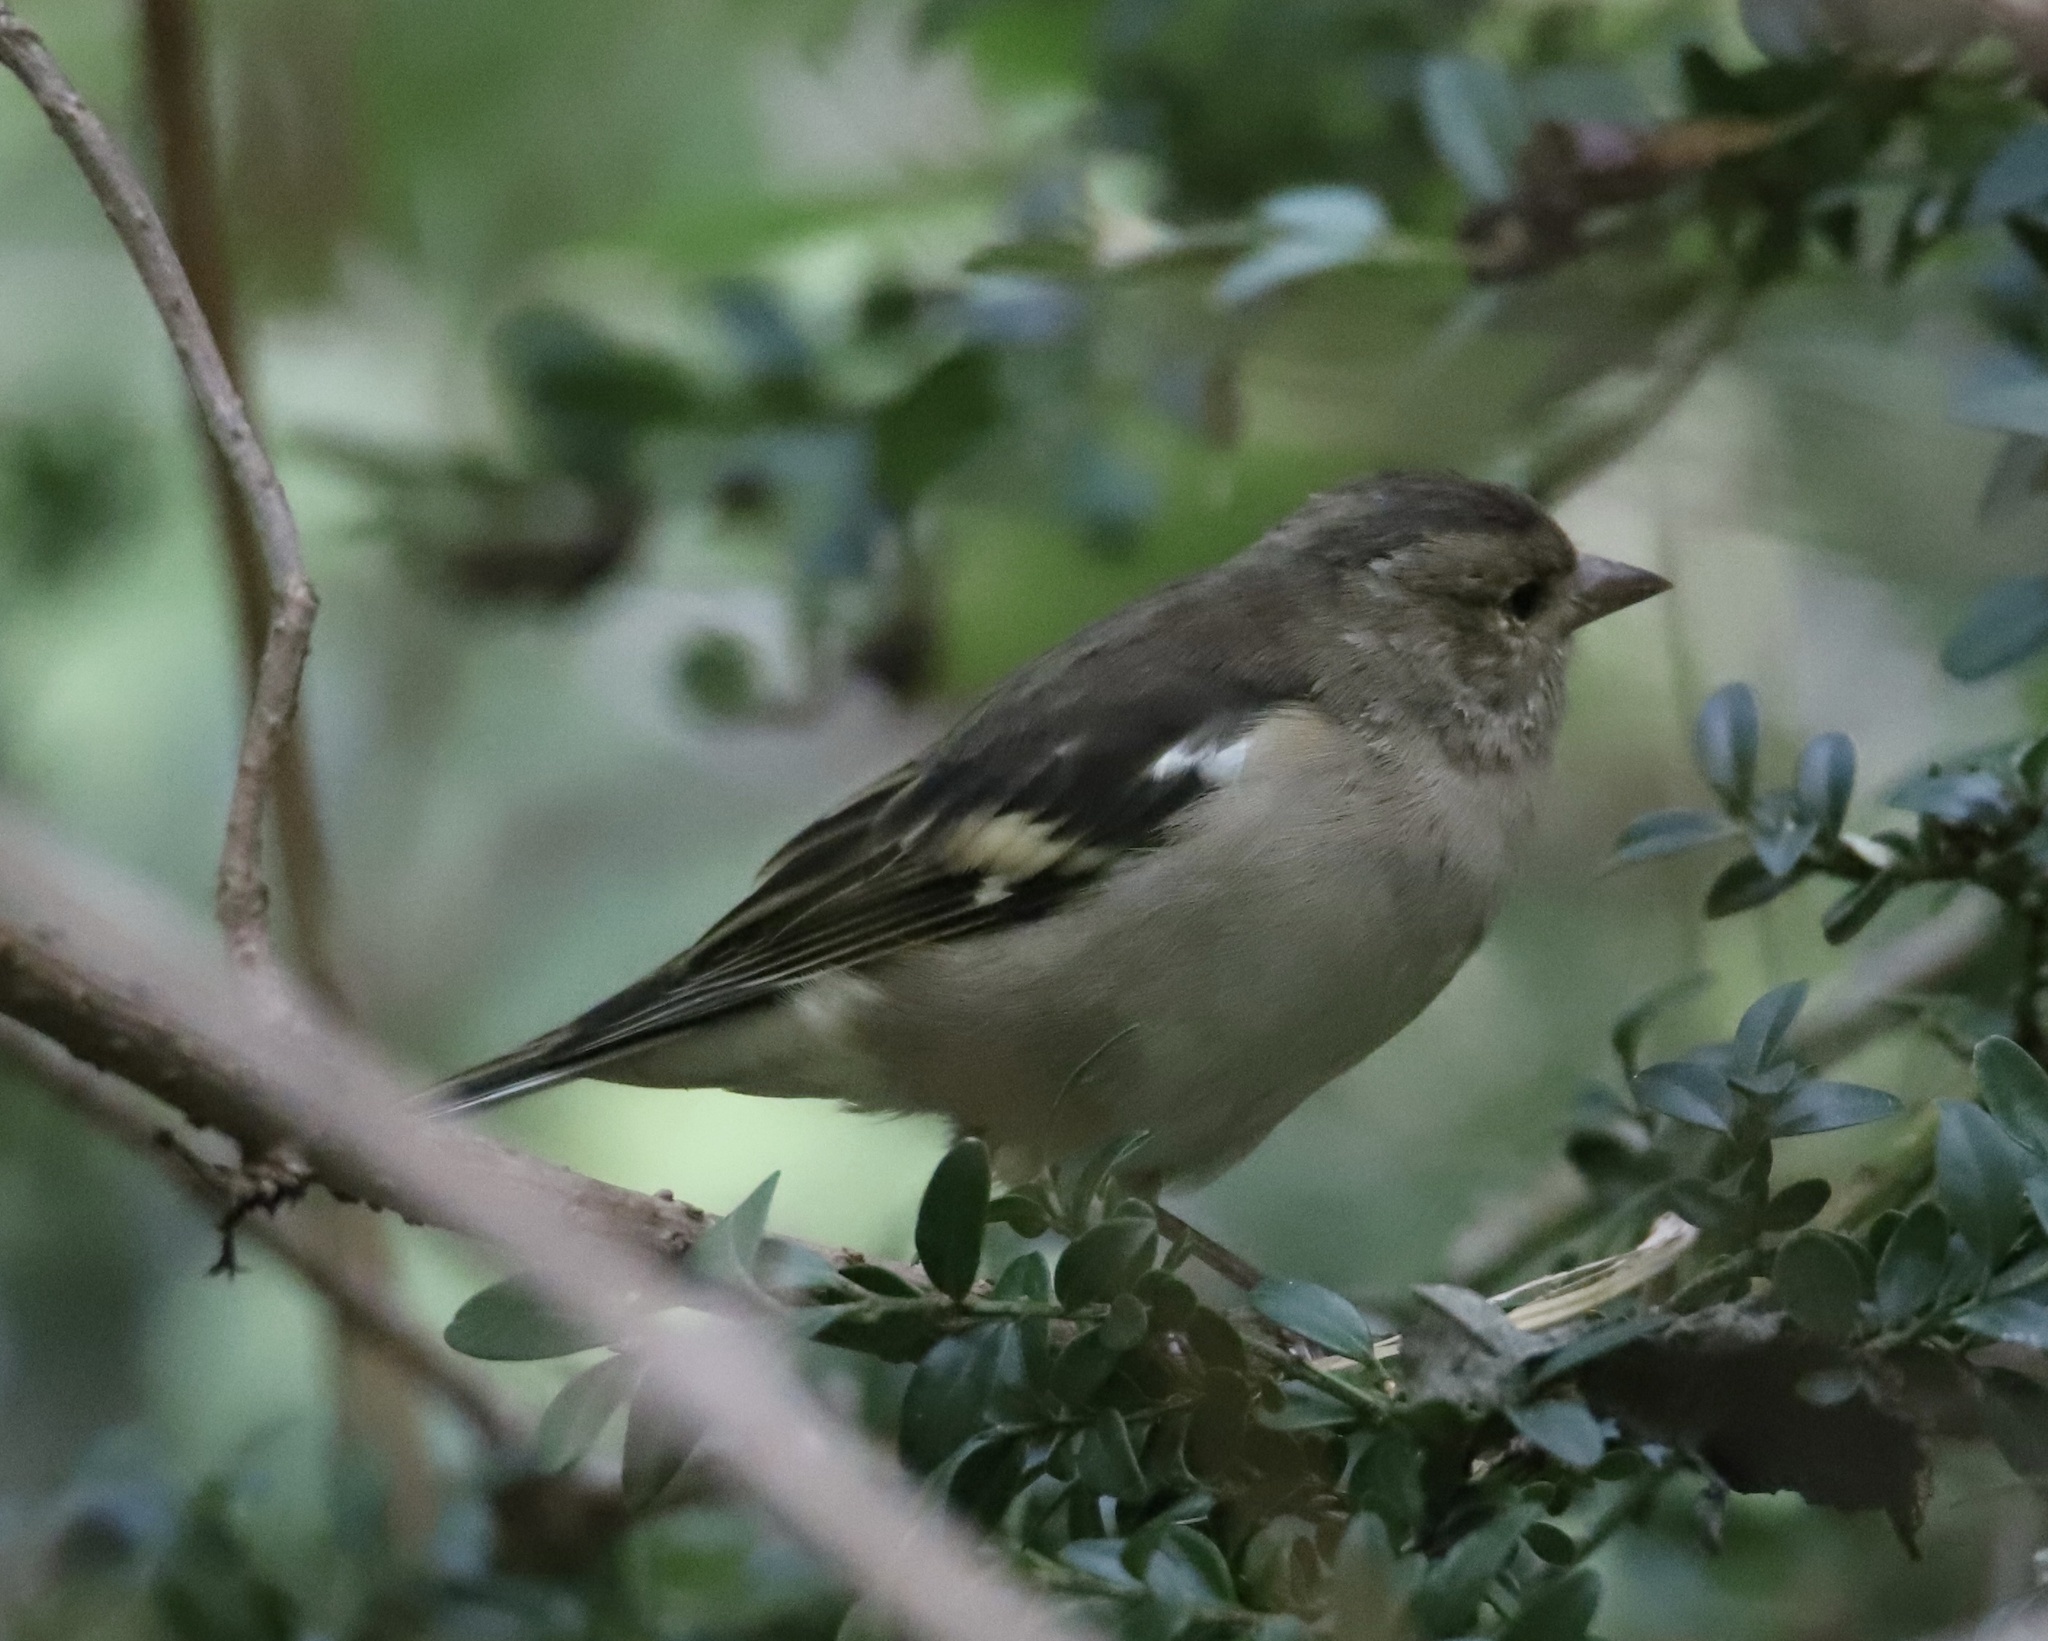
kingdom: Animalia
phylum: Chordata
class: Aves
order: Passeriformes
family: Fringillidae
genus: Fringilla
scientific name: Fringilla coelebs
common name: Common chaffinch
